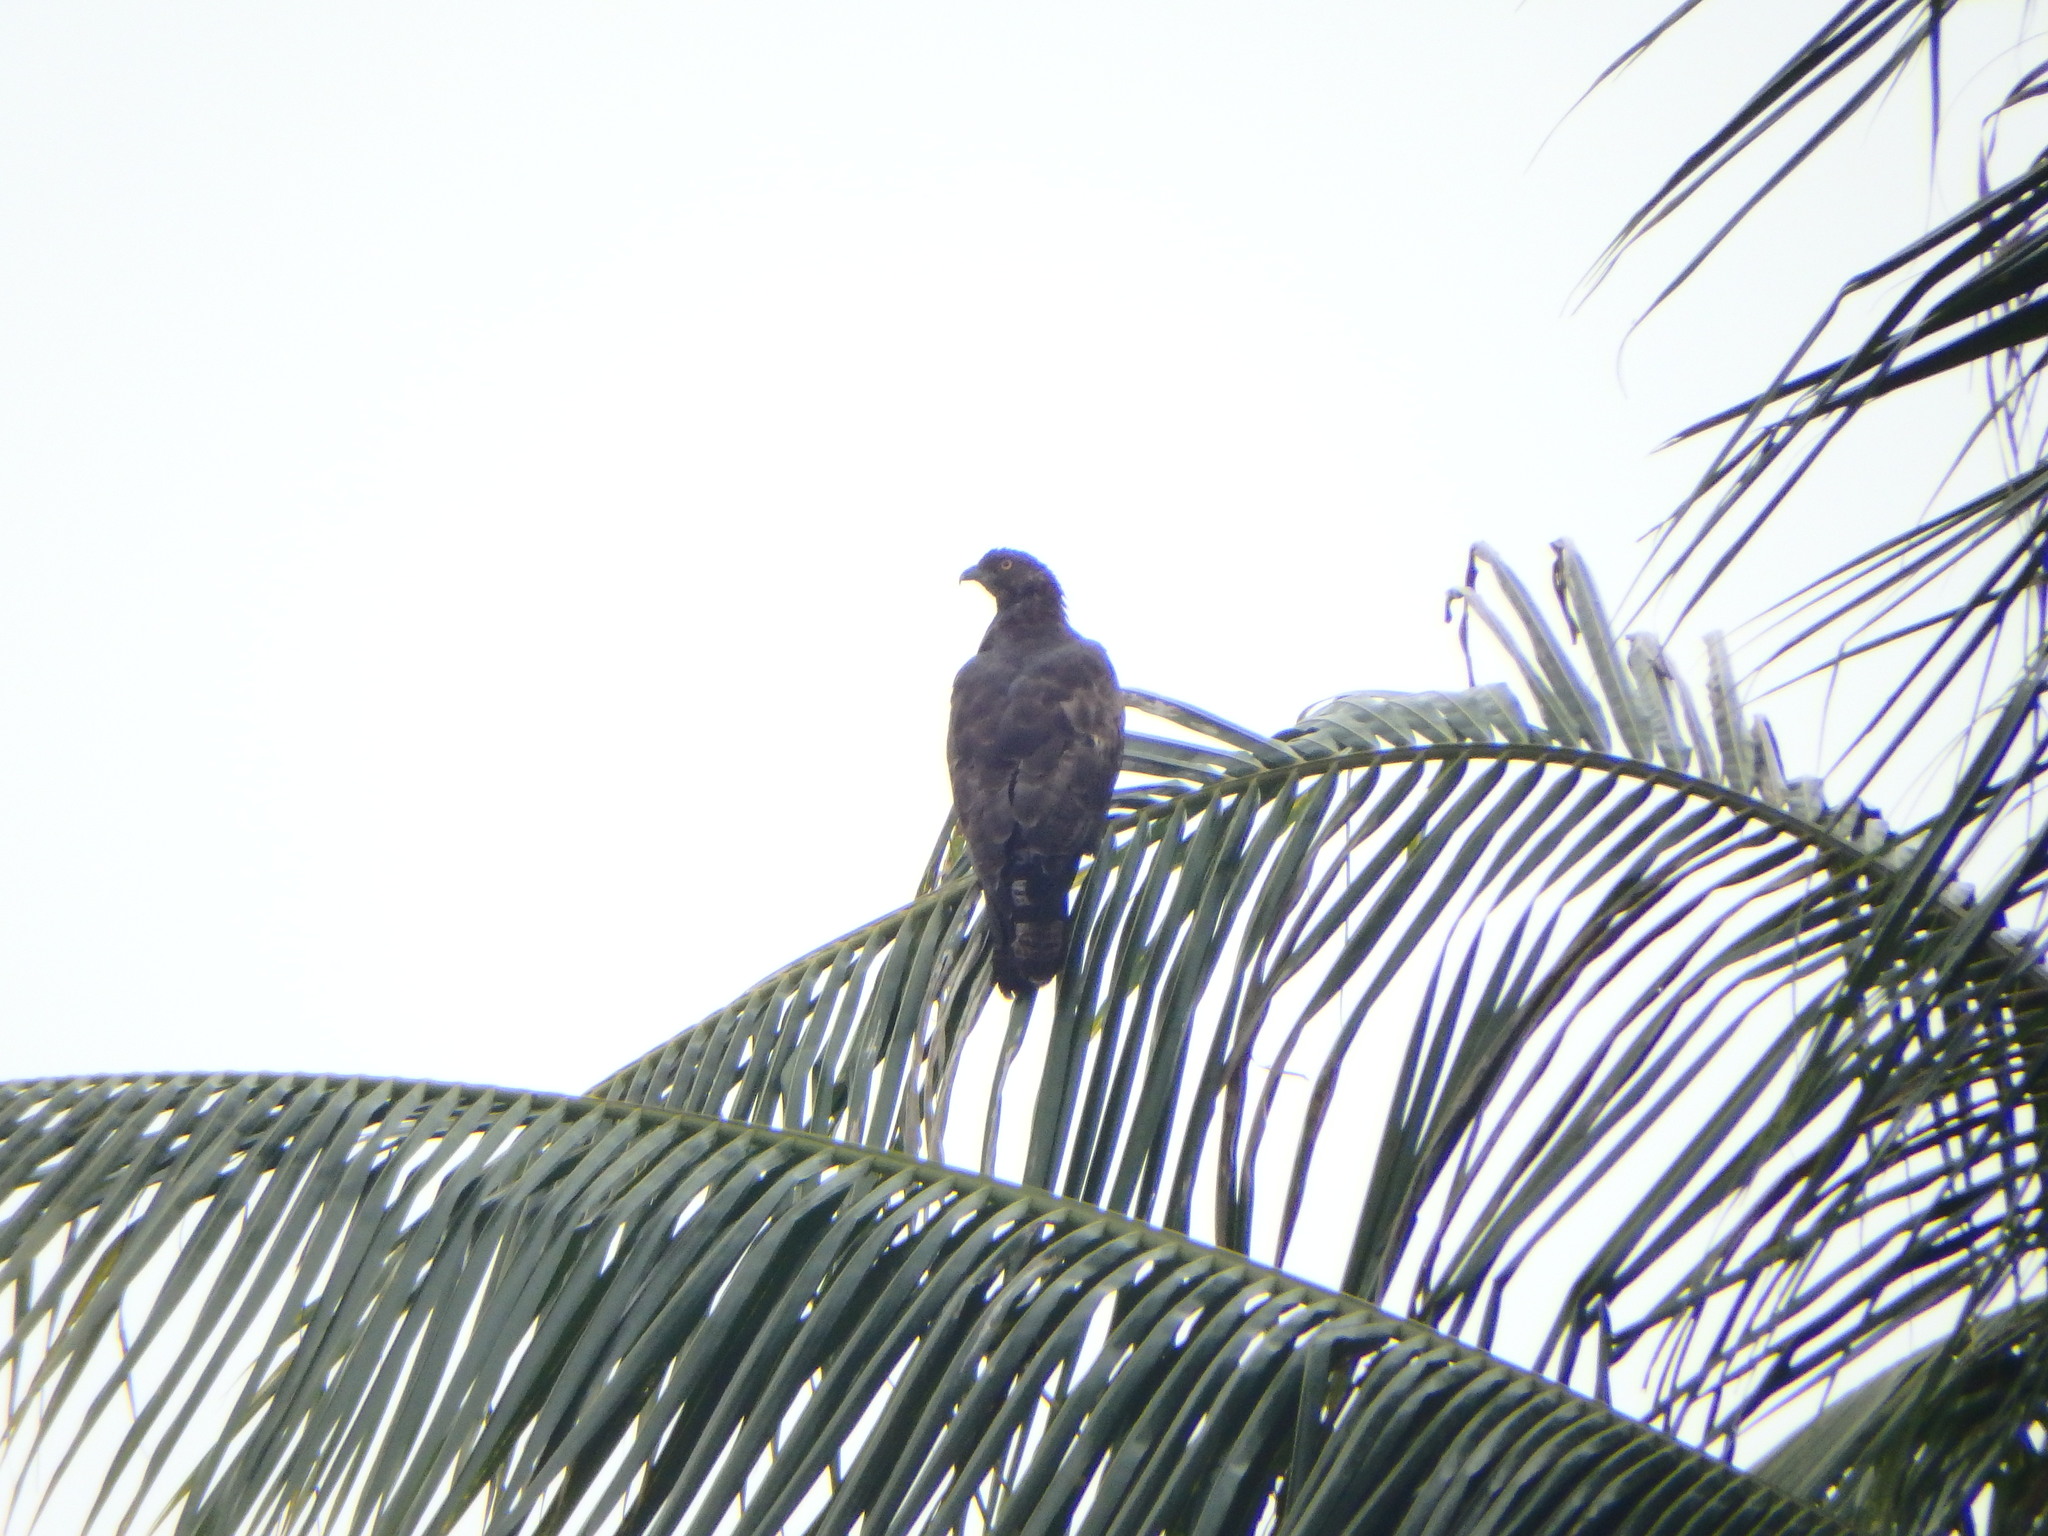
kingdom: Animalia
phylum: Chordata
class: Aves
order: Accipitriformes
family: Accipitridae
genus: Pernis
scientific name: Pernis ptilorhynchus
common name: Crested honey buzzard
